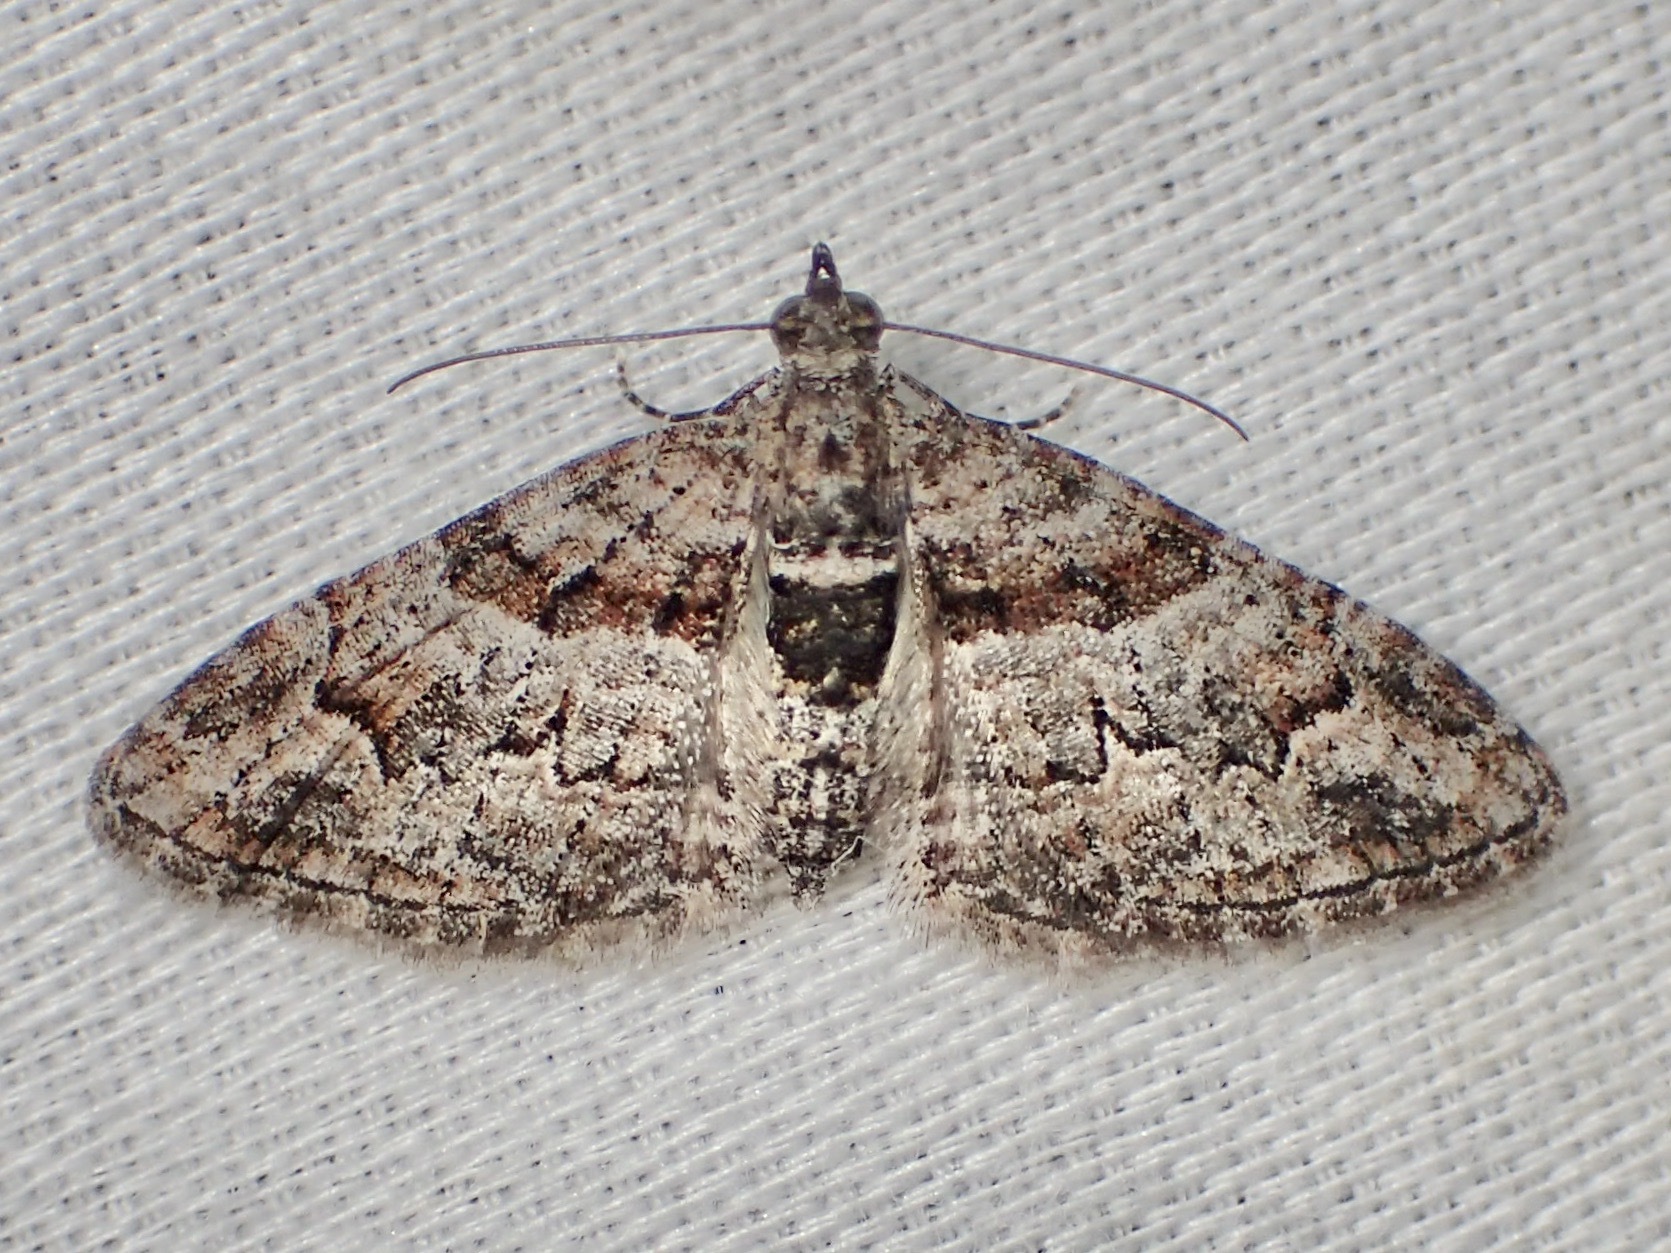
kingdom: Animalia
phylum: Arthropoda
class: Insecta
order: Lepidoptera
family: Geometridae
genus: Phrissogonus
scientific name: Phrissogonus laticostata
